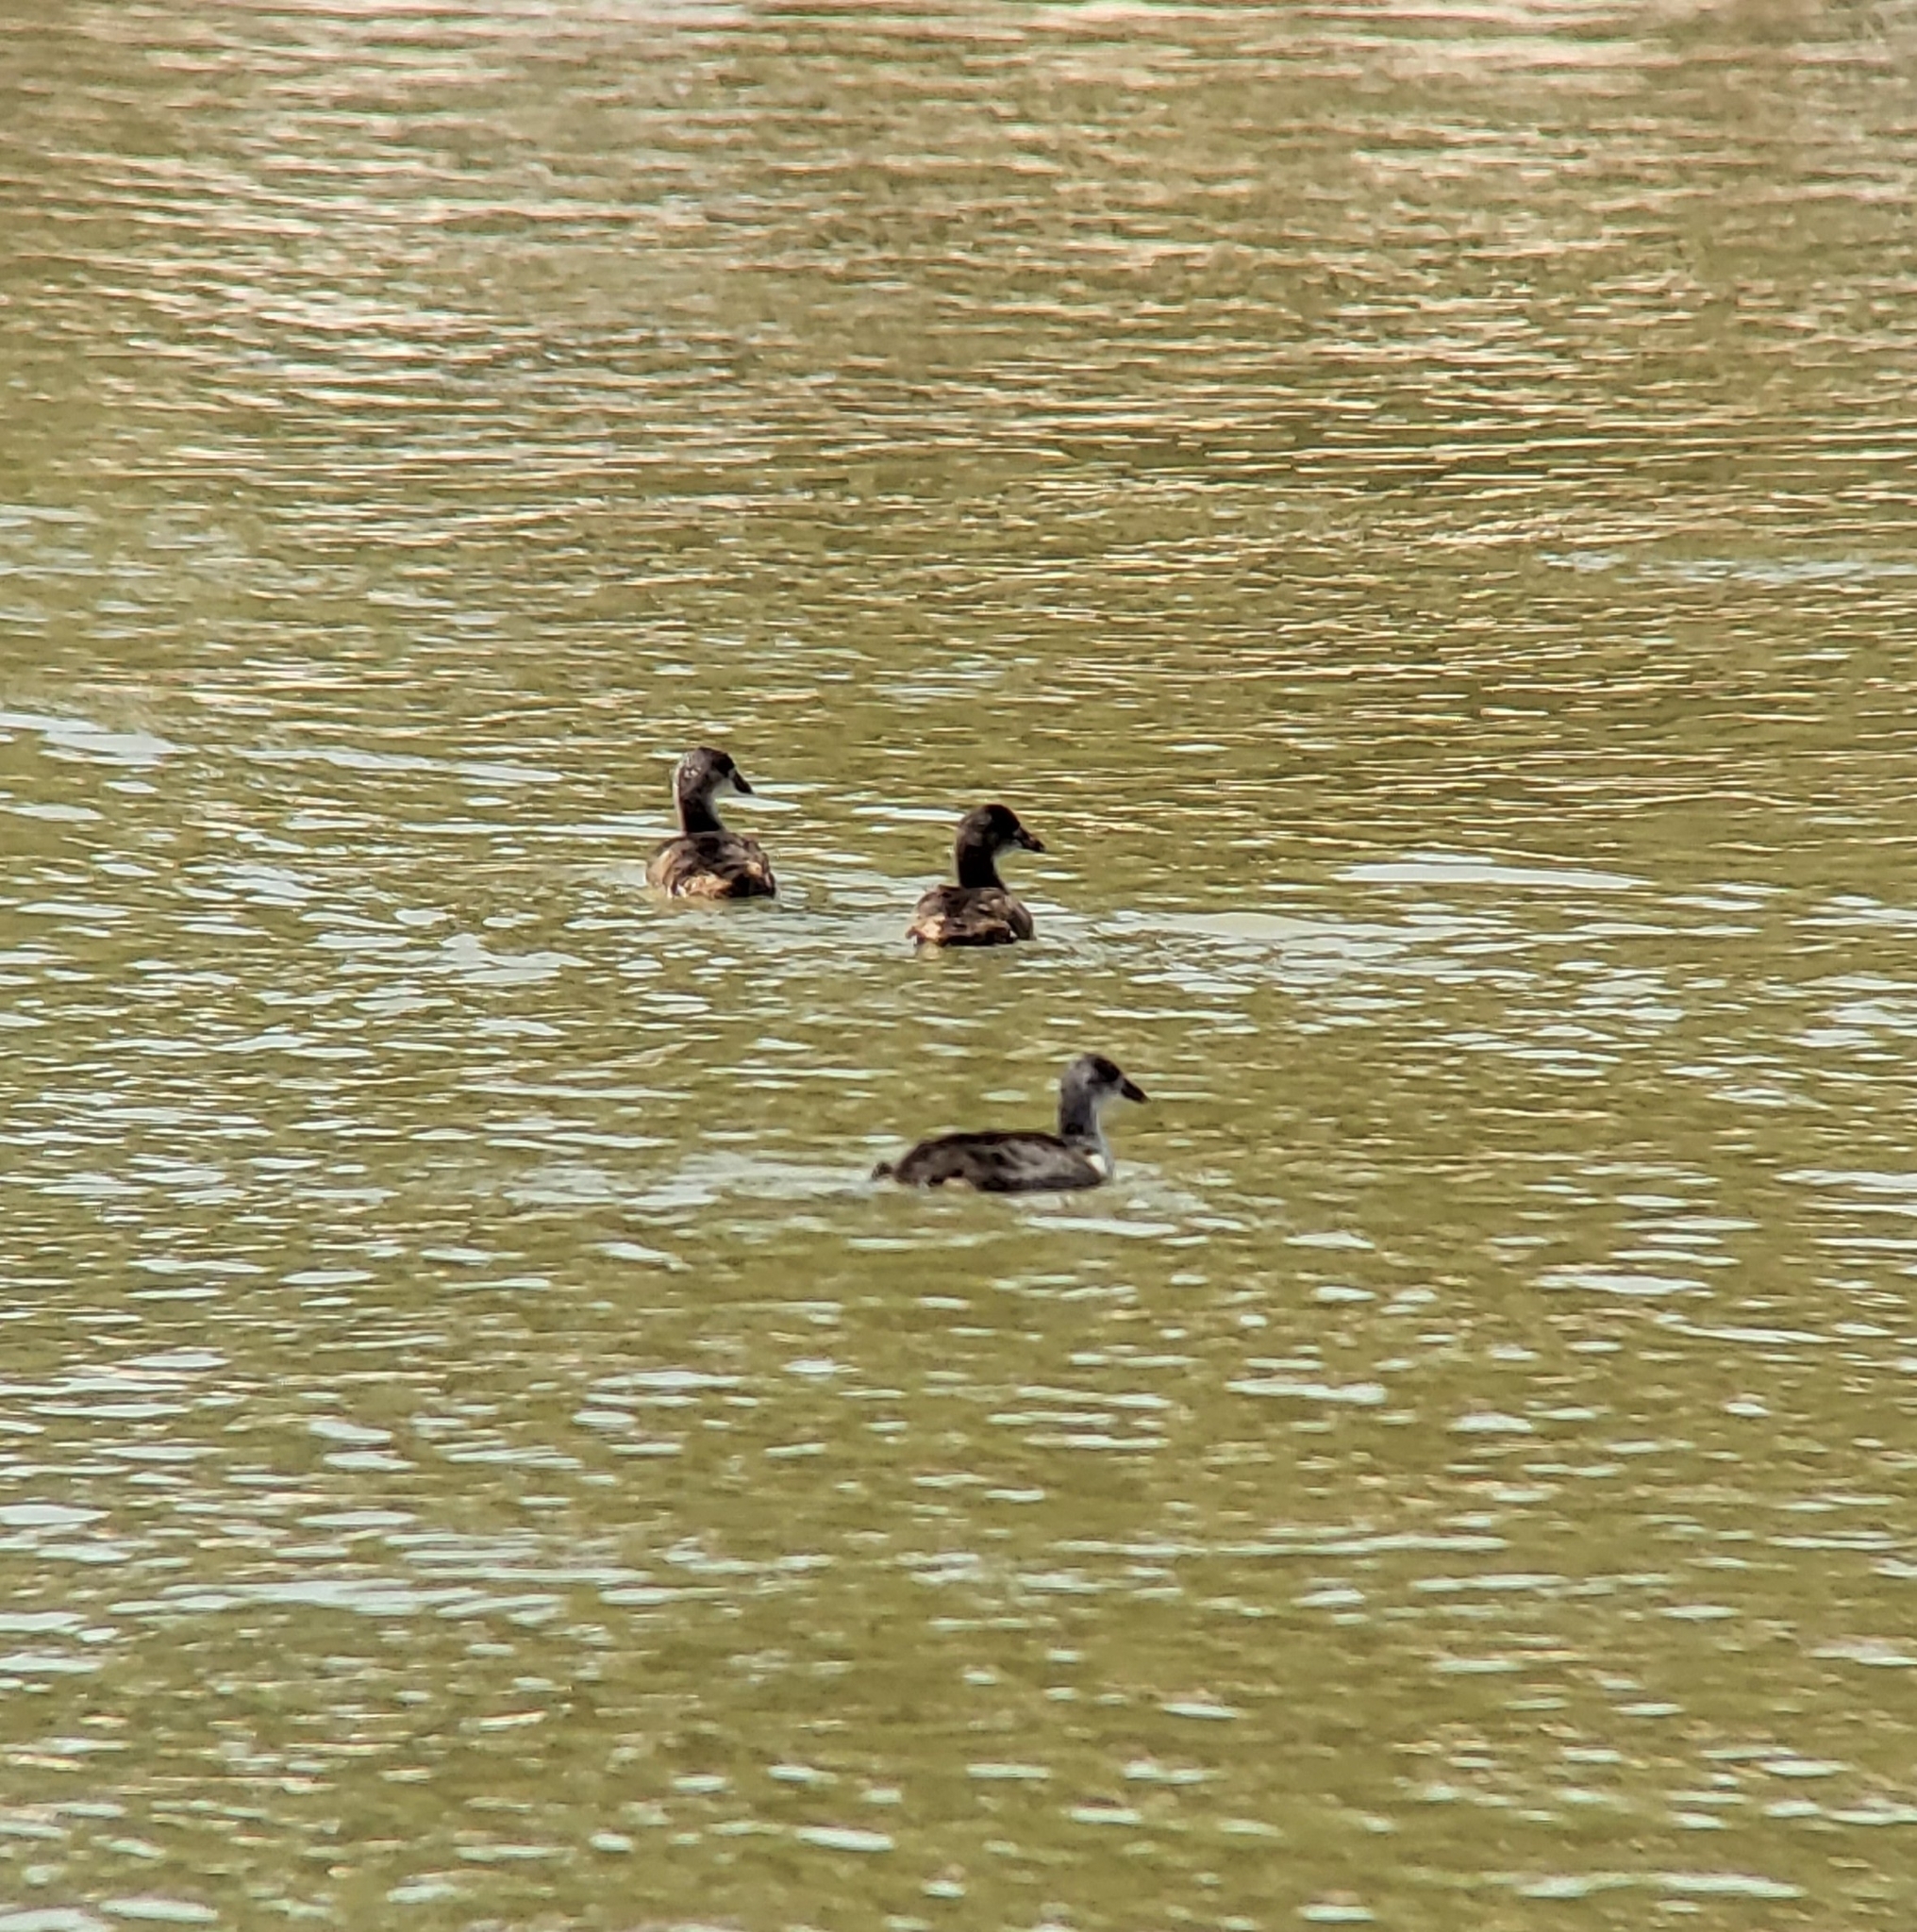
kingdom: Animalia
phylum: Chordata
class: Aves
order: Gruiformes
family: Rallidae
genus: Fulica
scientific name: Fulica americana
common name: American coot
